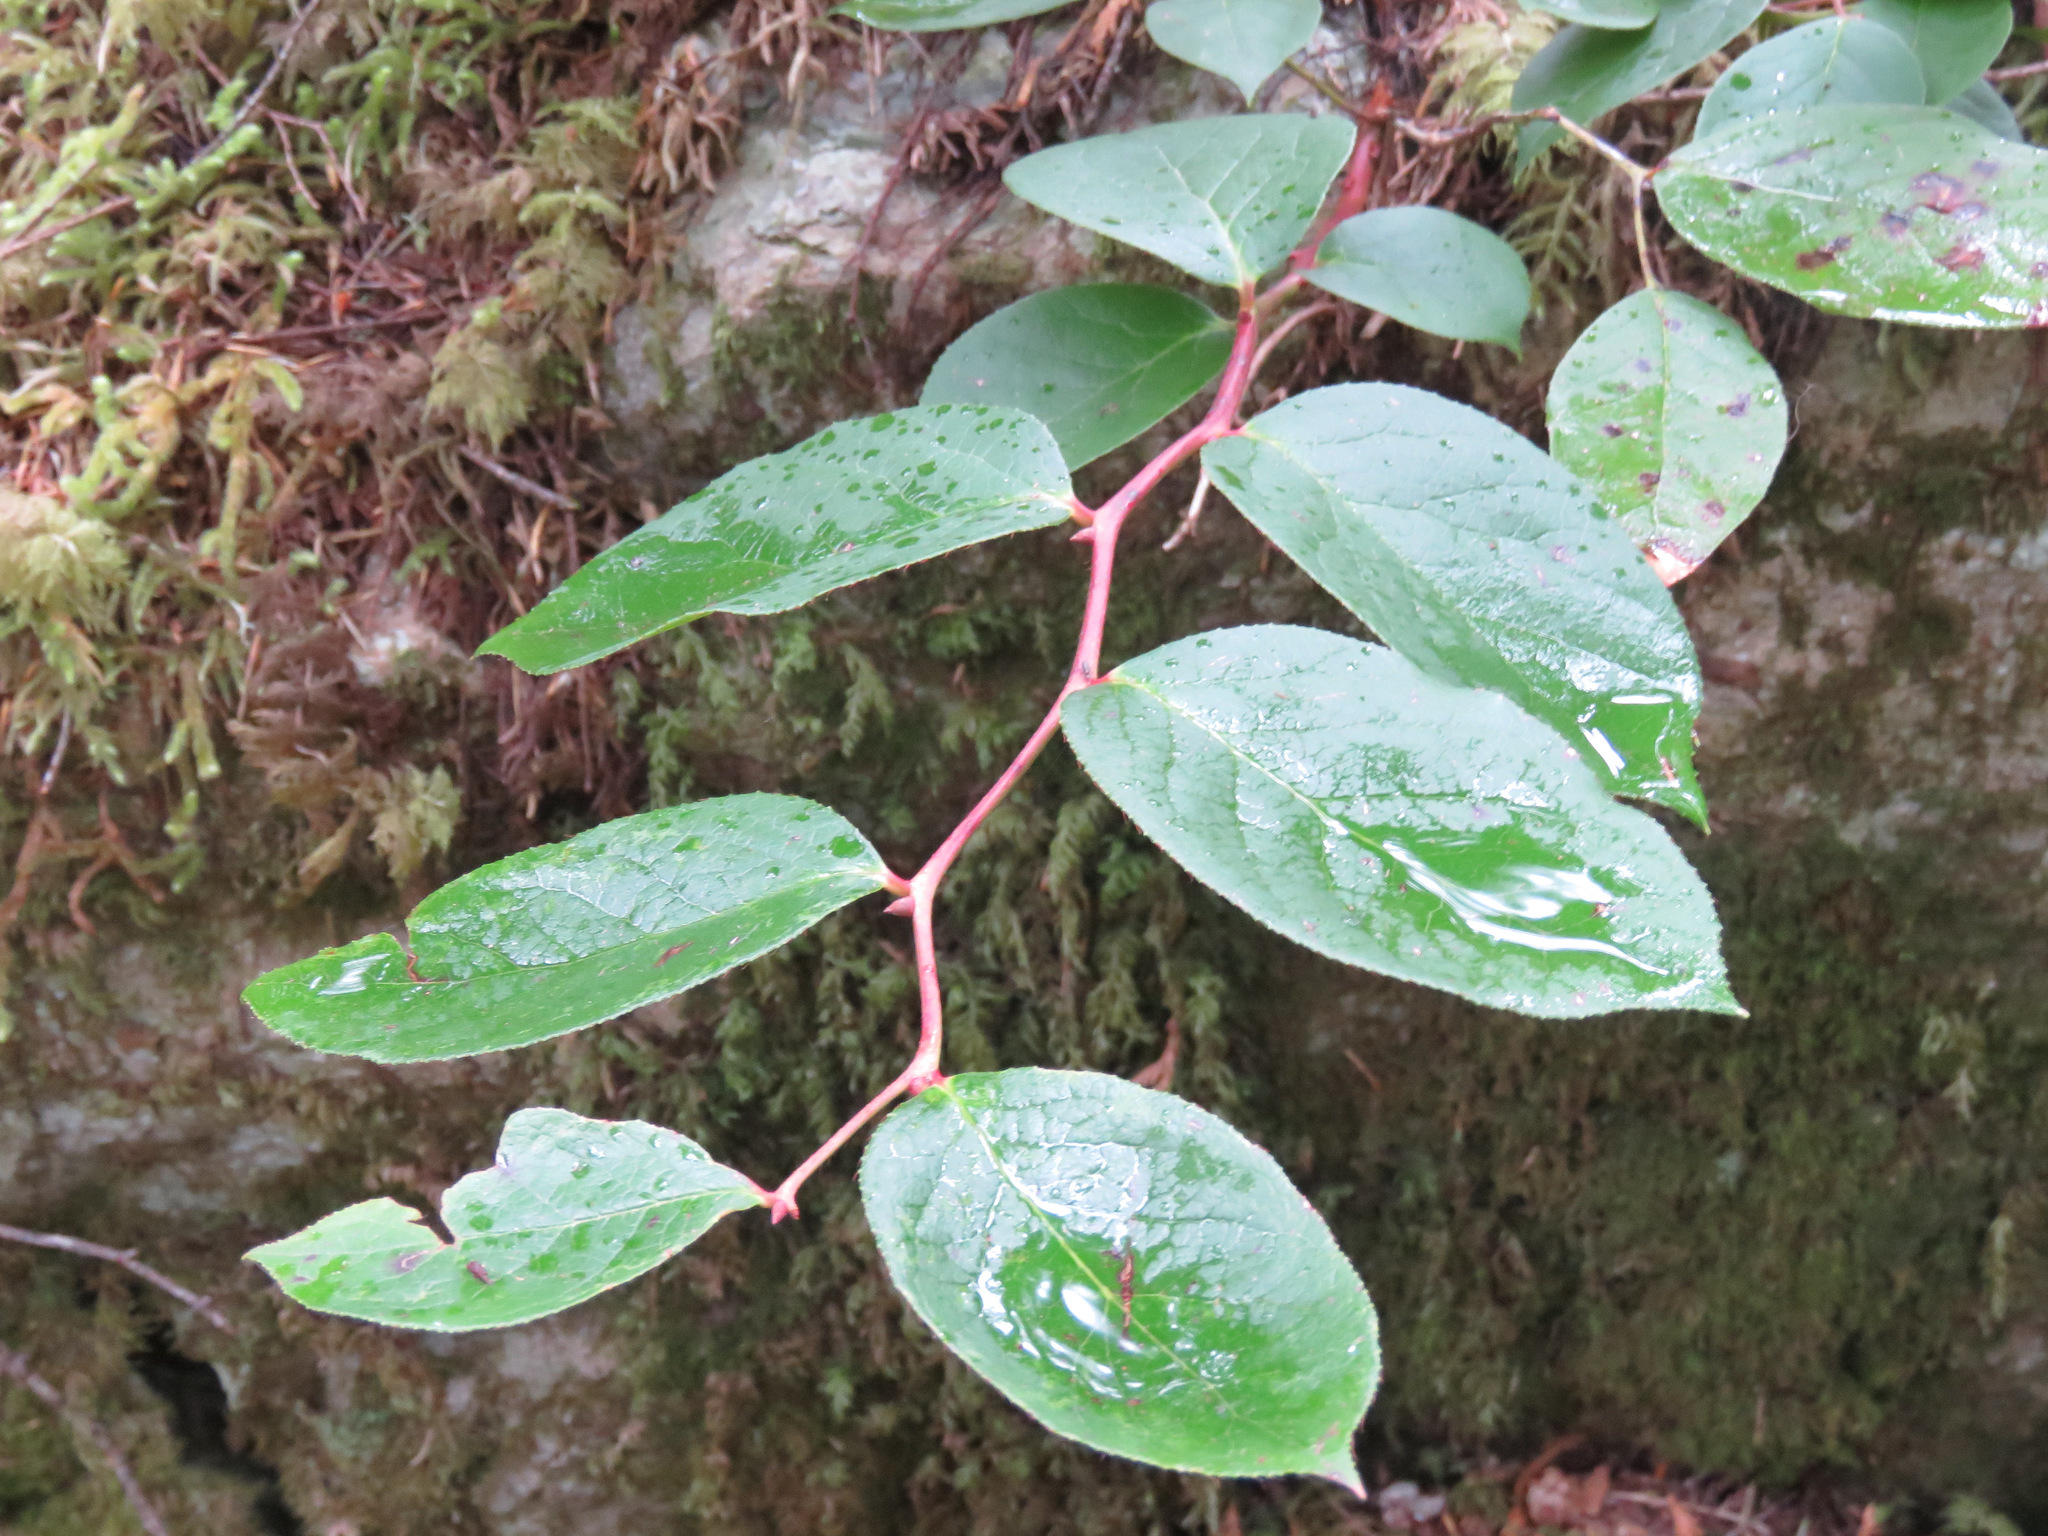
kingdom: Plantae
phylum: Tracheophyta
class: Magnoliopsida
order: Ericales
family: Ericaceae
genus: Gaultheria
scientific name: Gaultheria shallon
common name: Shallon
